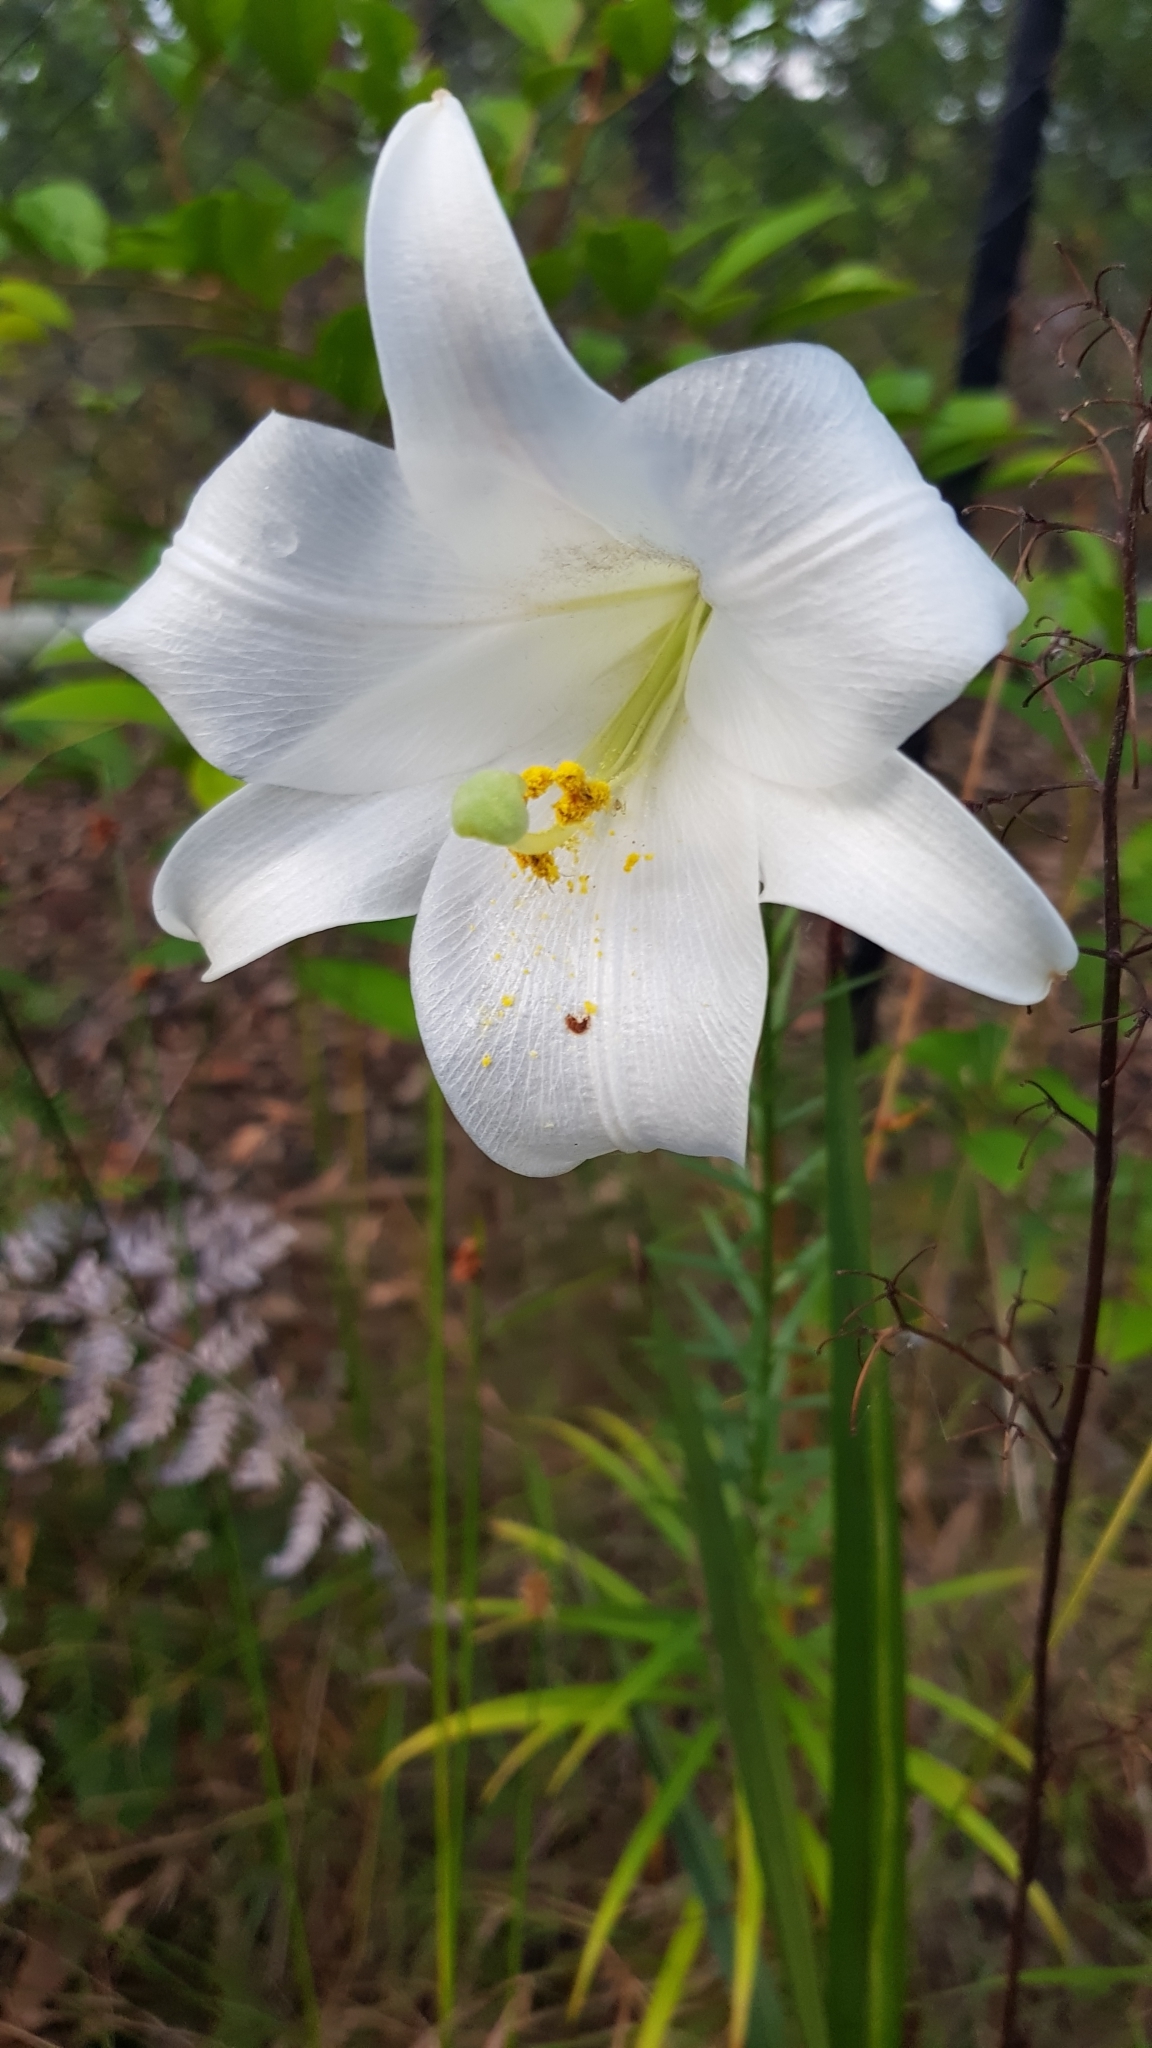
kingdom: Plantae
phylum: Tracheophyta
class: Liliopsida
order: Liliales
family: Liliaceae
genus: Lilium
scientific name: Lilium formosanum
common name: Formosa lily
